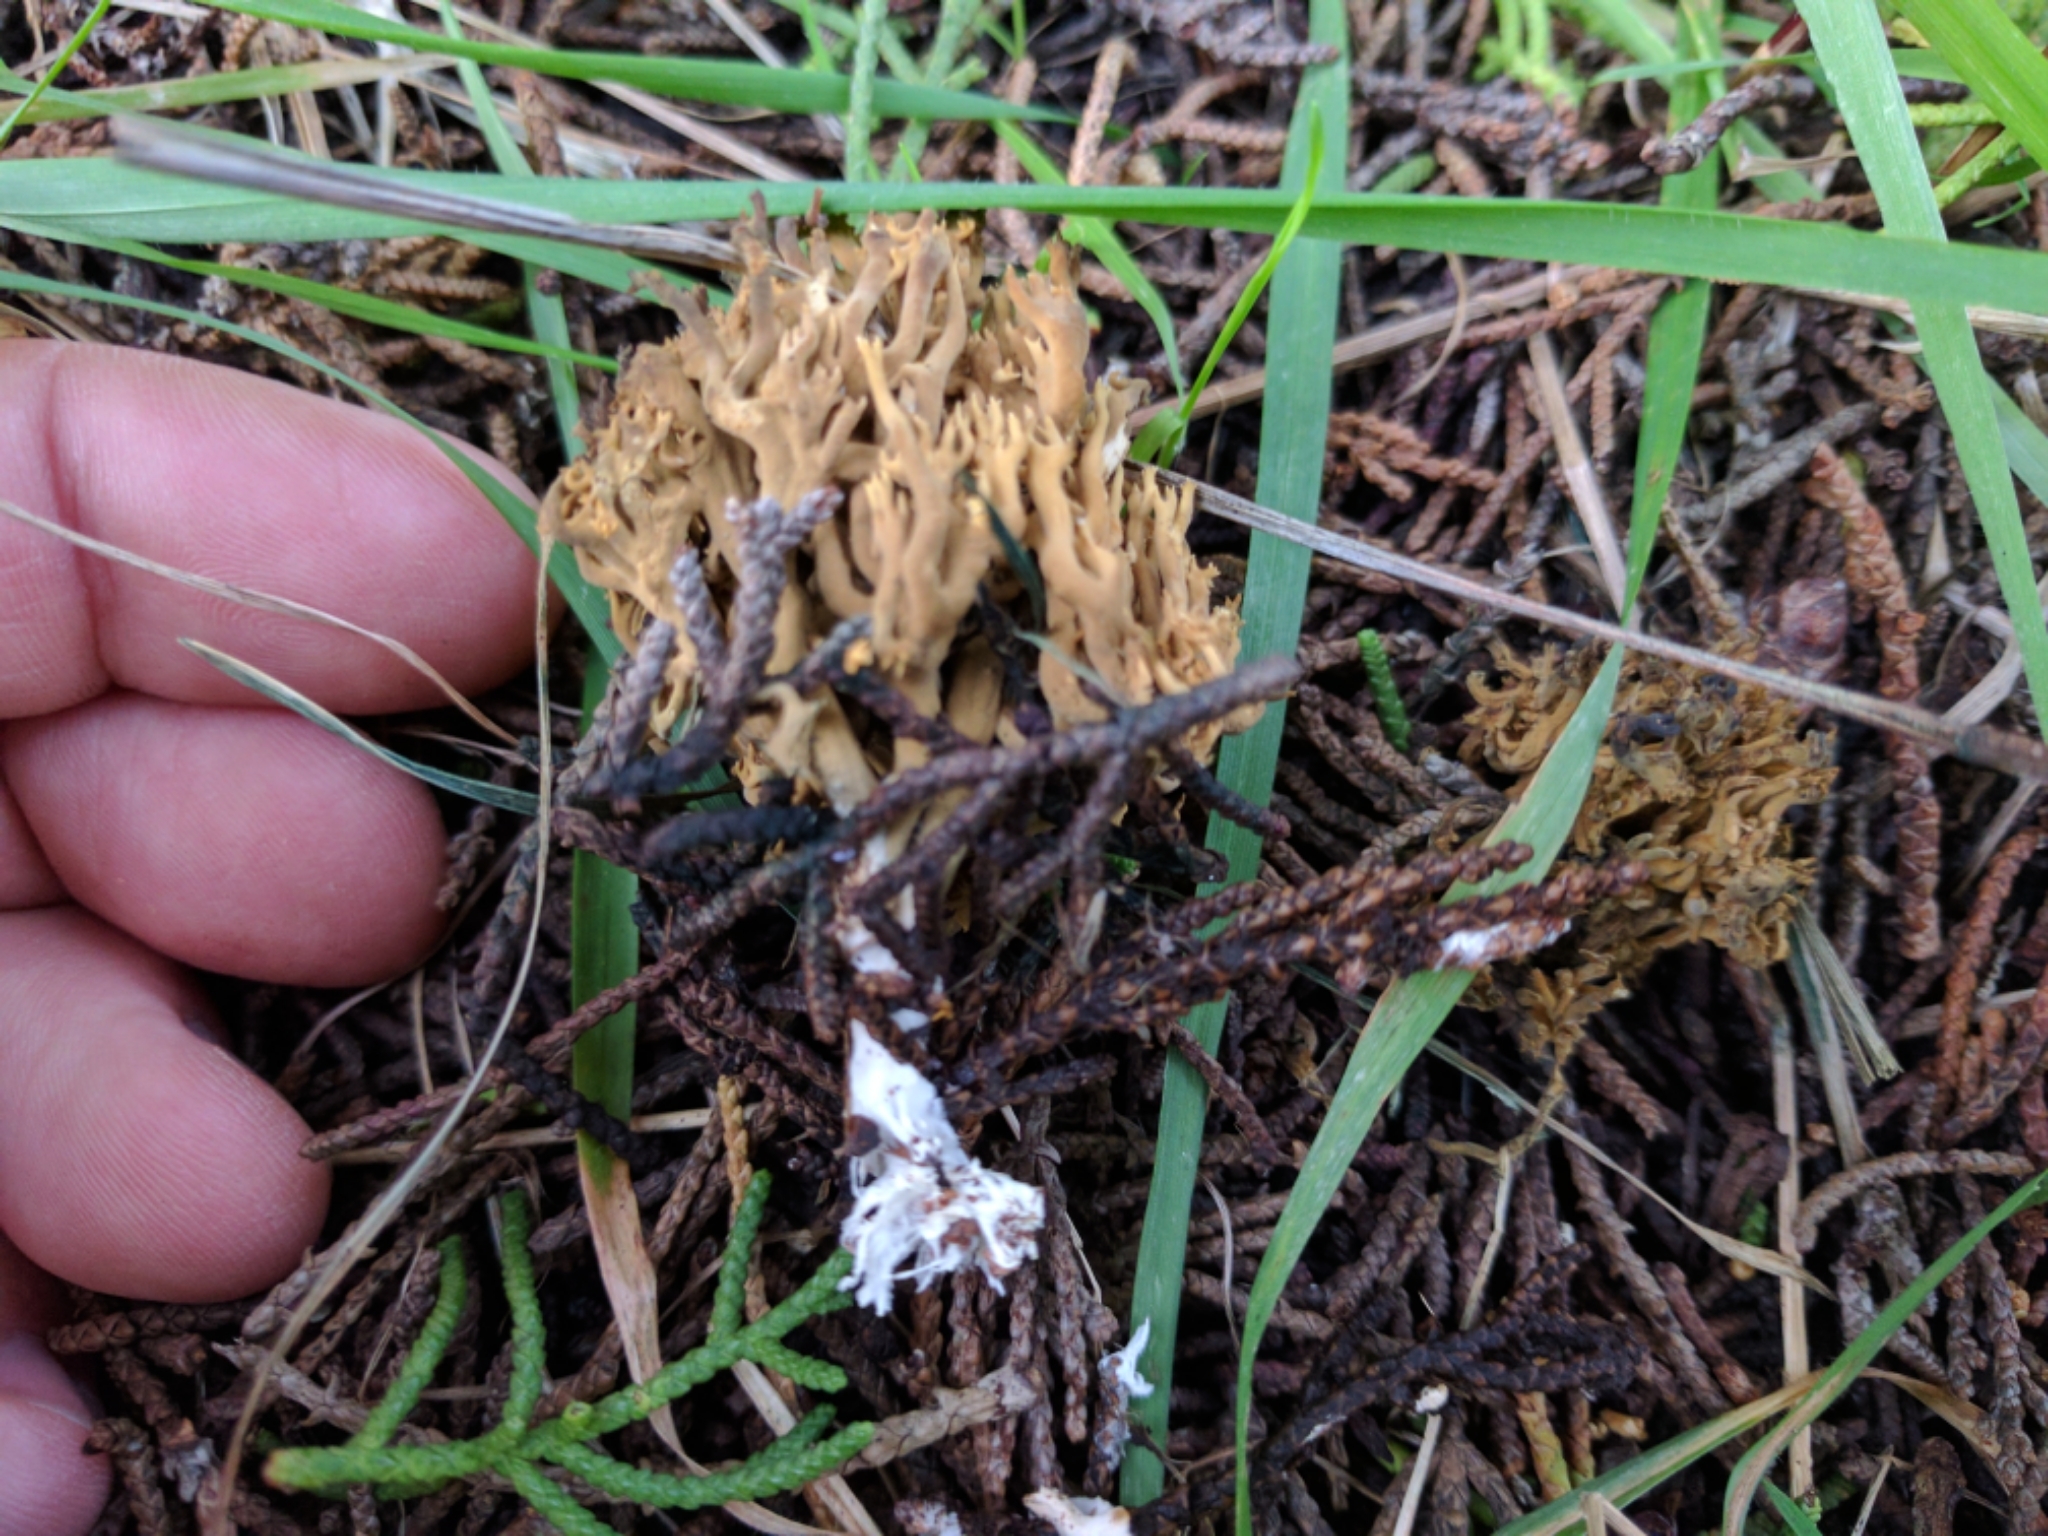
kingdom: Fungi
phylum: Basidiomycota
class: Agaricomycetes
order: Gomphales
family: Gomphaceae
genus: Phaeoclavulina
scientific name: Phaeoclavulina myceliosa
